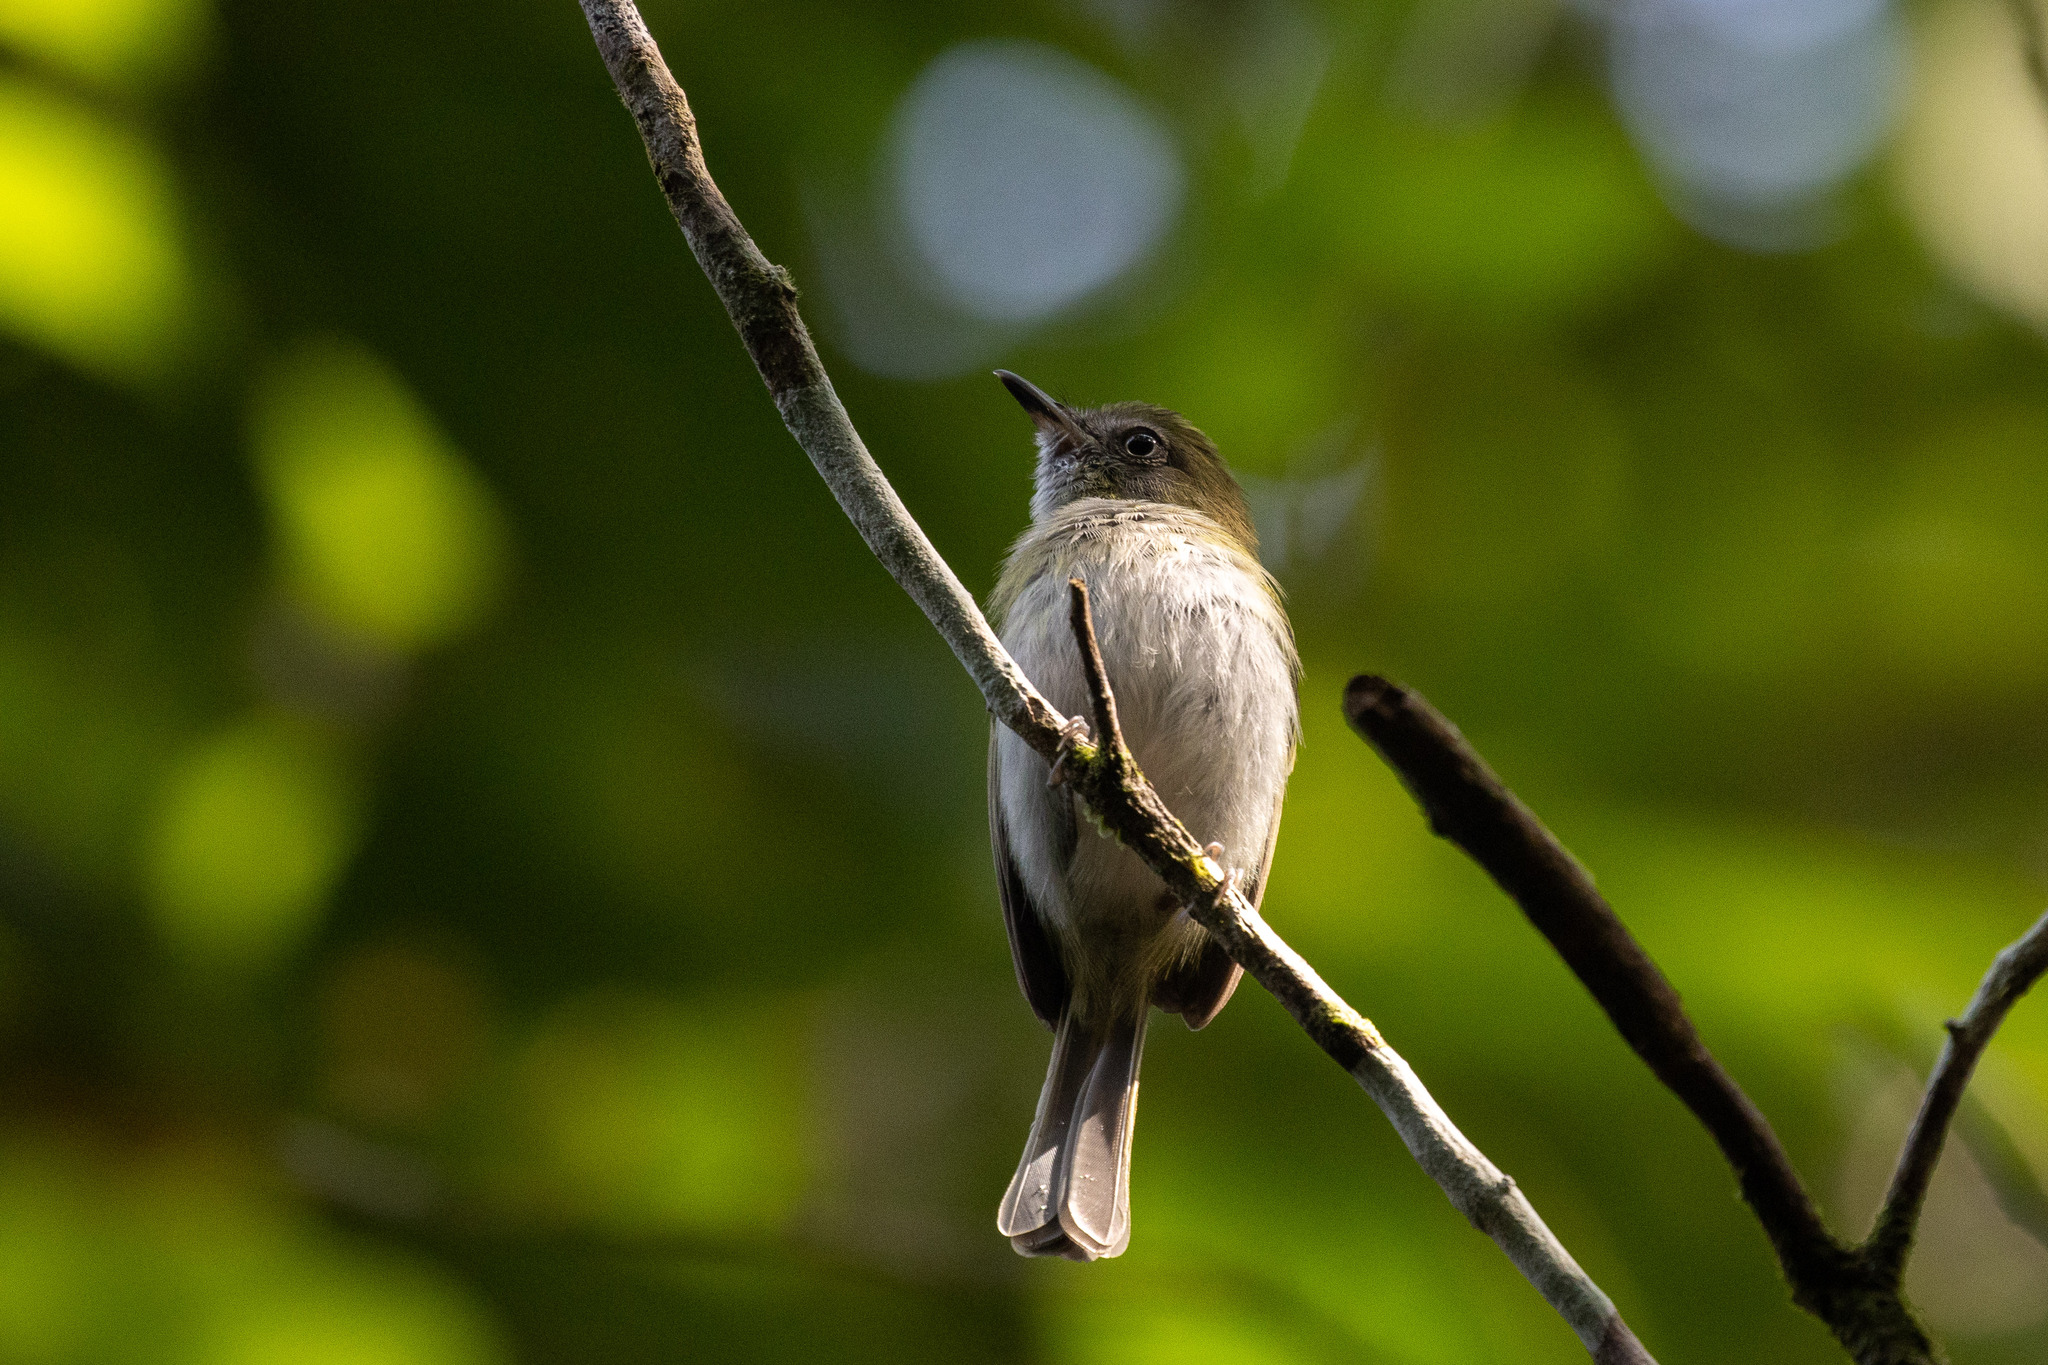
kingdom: Animalia
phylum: Chordata
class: Aves
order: Passeriformes
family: Tyrannidae
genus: Hemitriccus
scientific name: Hemitriccus griseipectus
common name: White-bellied tody-tyrant
